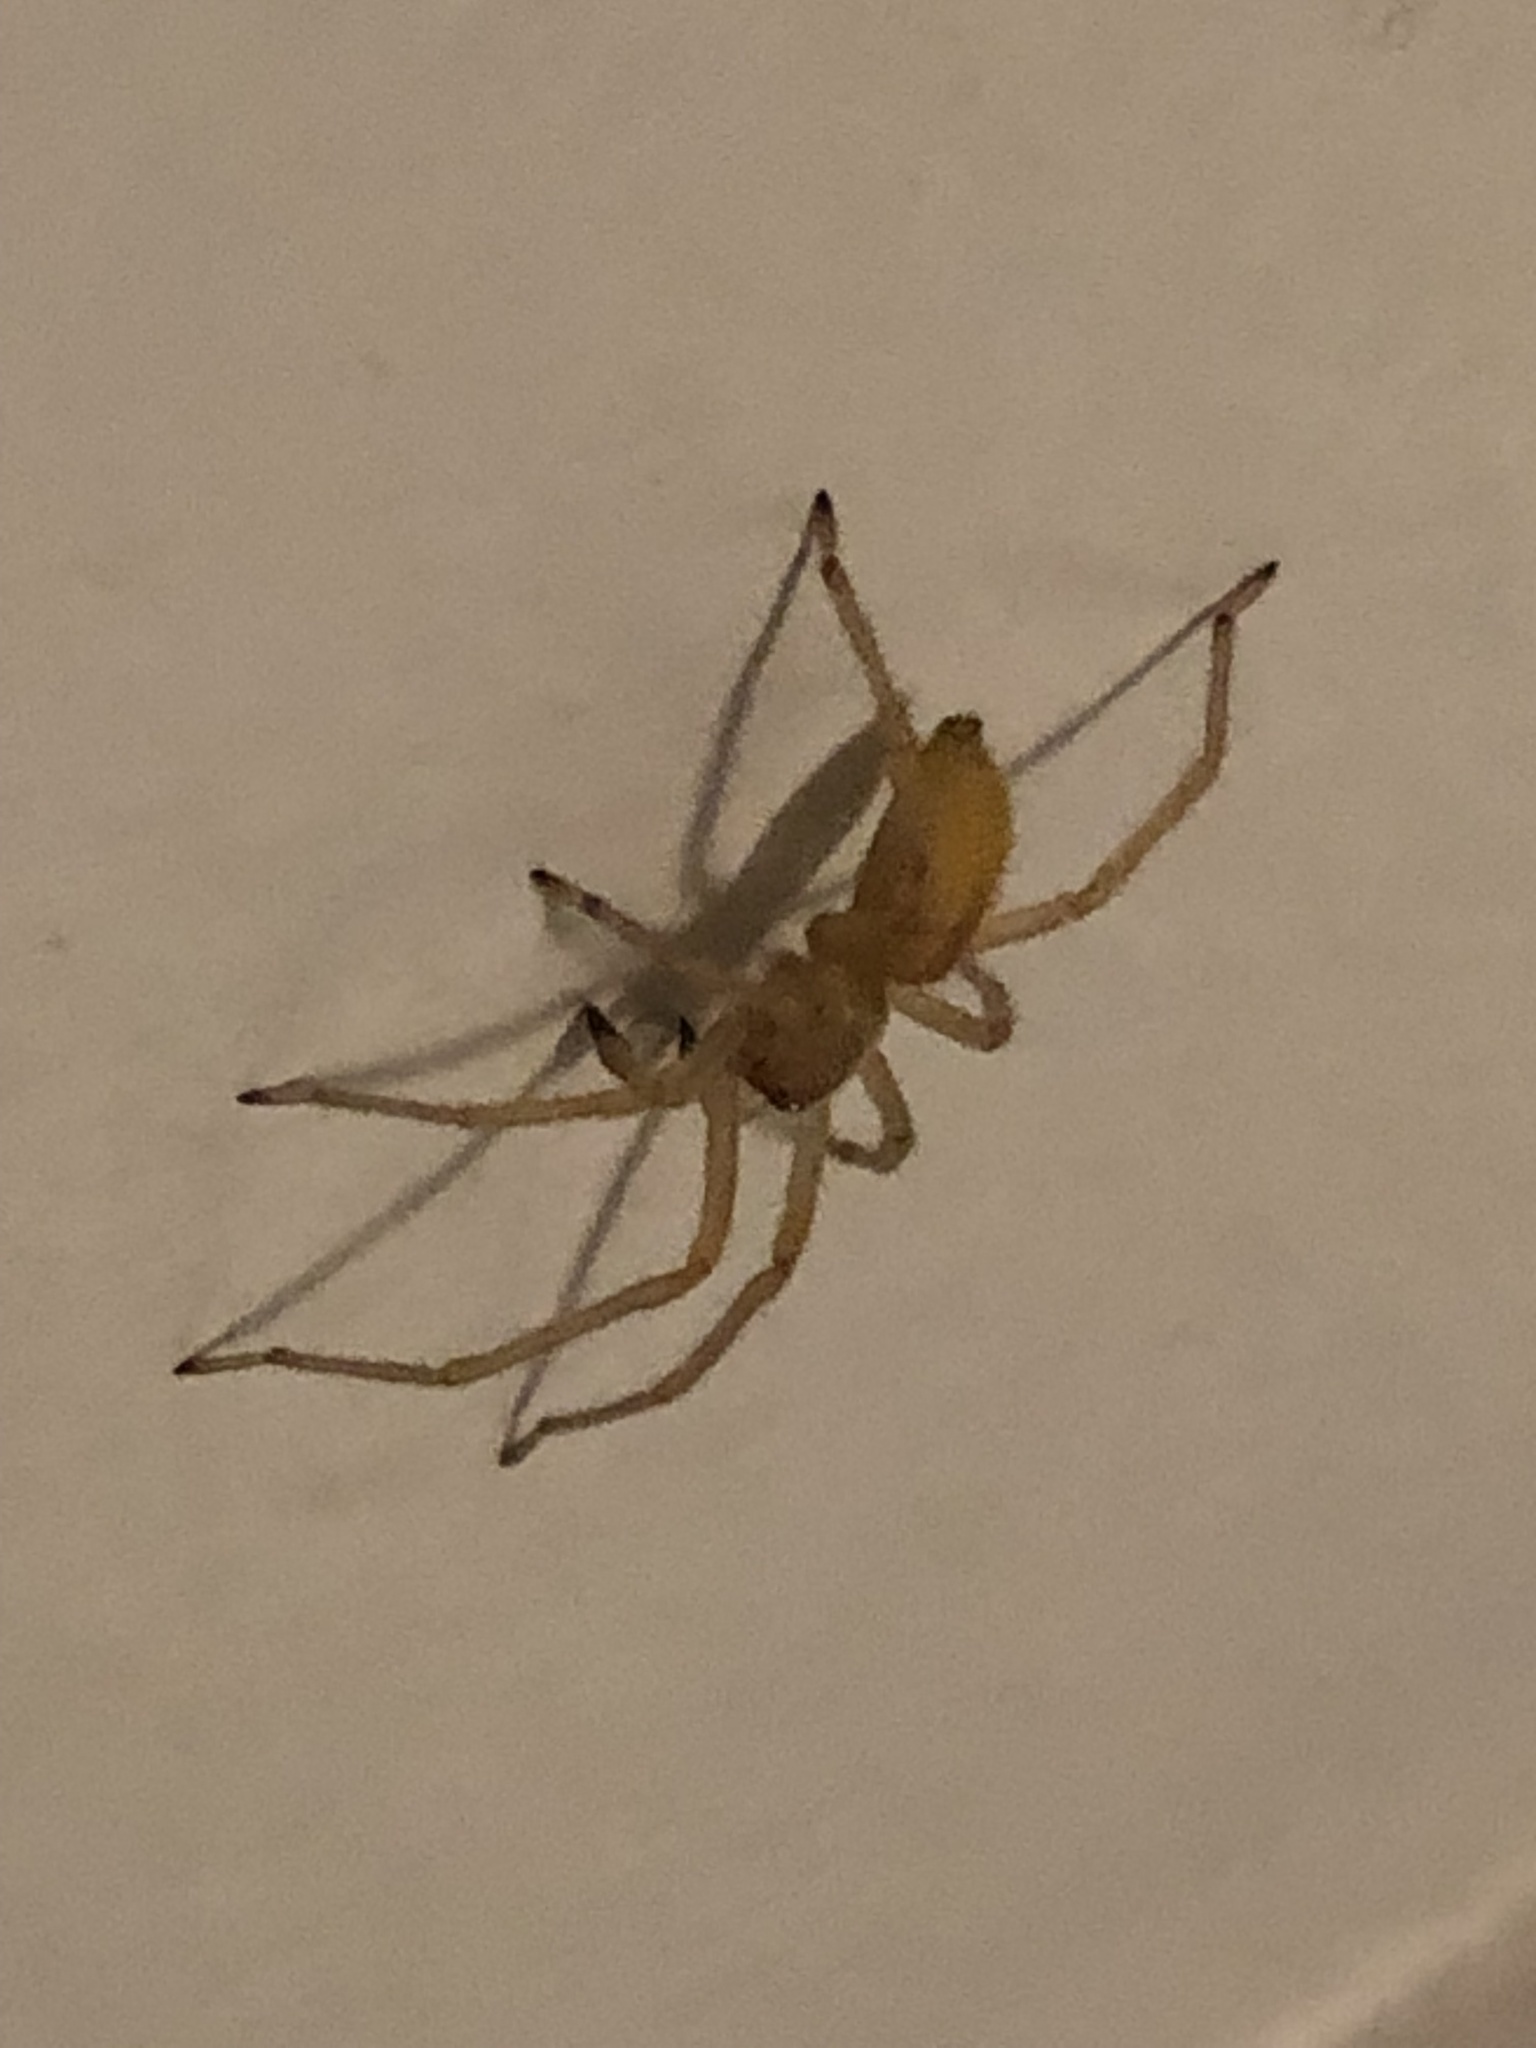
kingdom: Animalia
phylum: Arthropoda
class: Arachnida
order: Araneae
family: Cheiracanthiidae
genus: Cheiracanthium
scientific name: Cheiracanthium mildei
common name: Northern yellow sac spider
